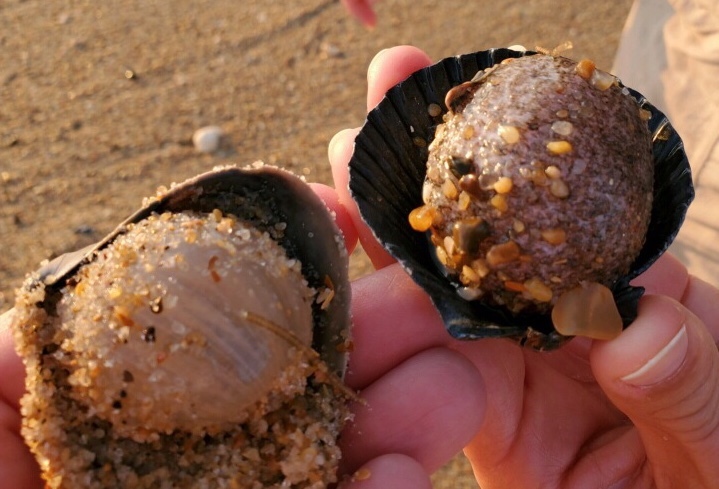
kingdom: Animalia
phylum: Cnidaria
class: Anthozoa
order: Actiniaria
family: Actinostolidae
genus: Paranthus
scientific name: Paranthus rapiformis
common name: Sea onion
